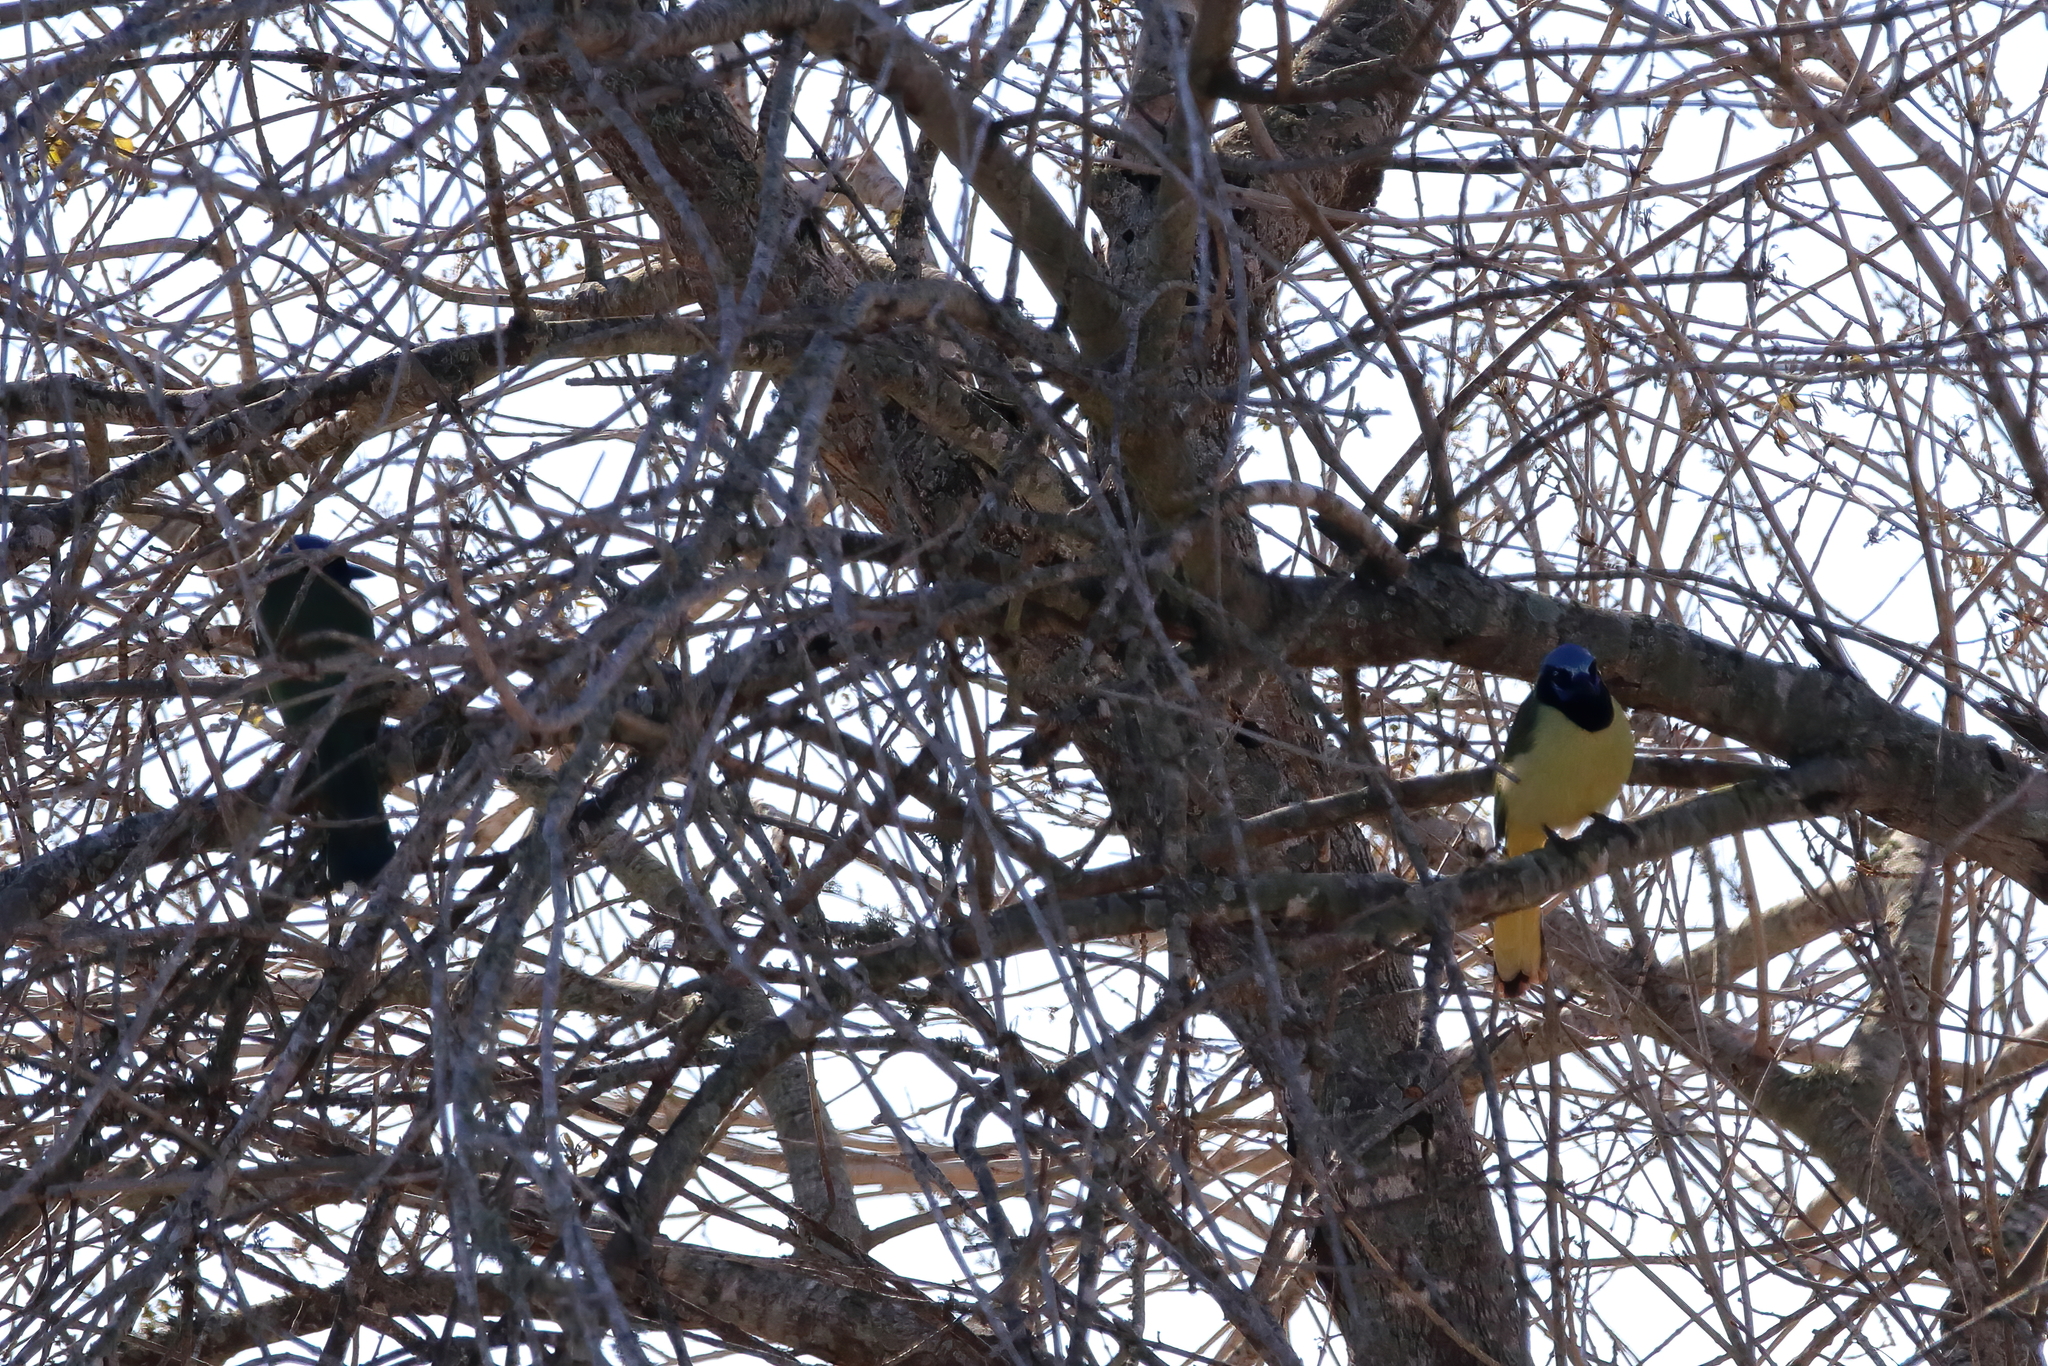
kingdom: Animalia
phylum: Chordata
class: Aves
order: Passeriformes
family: Corvidae
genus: Cyanocorax
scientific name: Cyanocorax yncas
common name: Green jay
